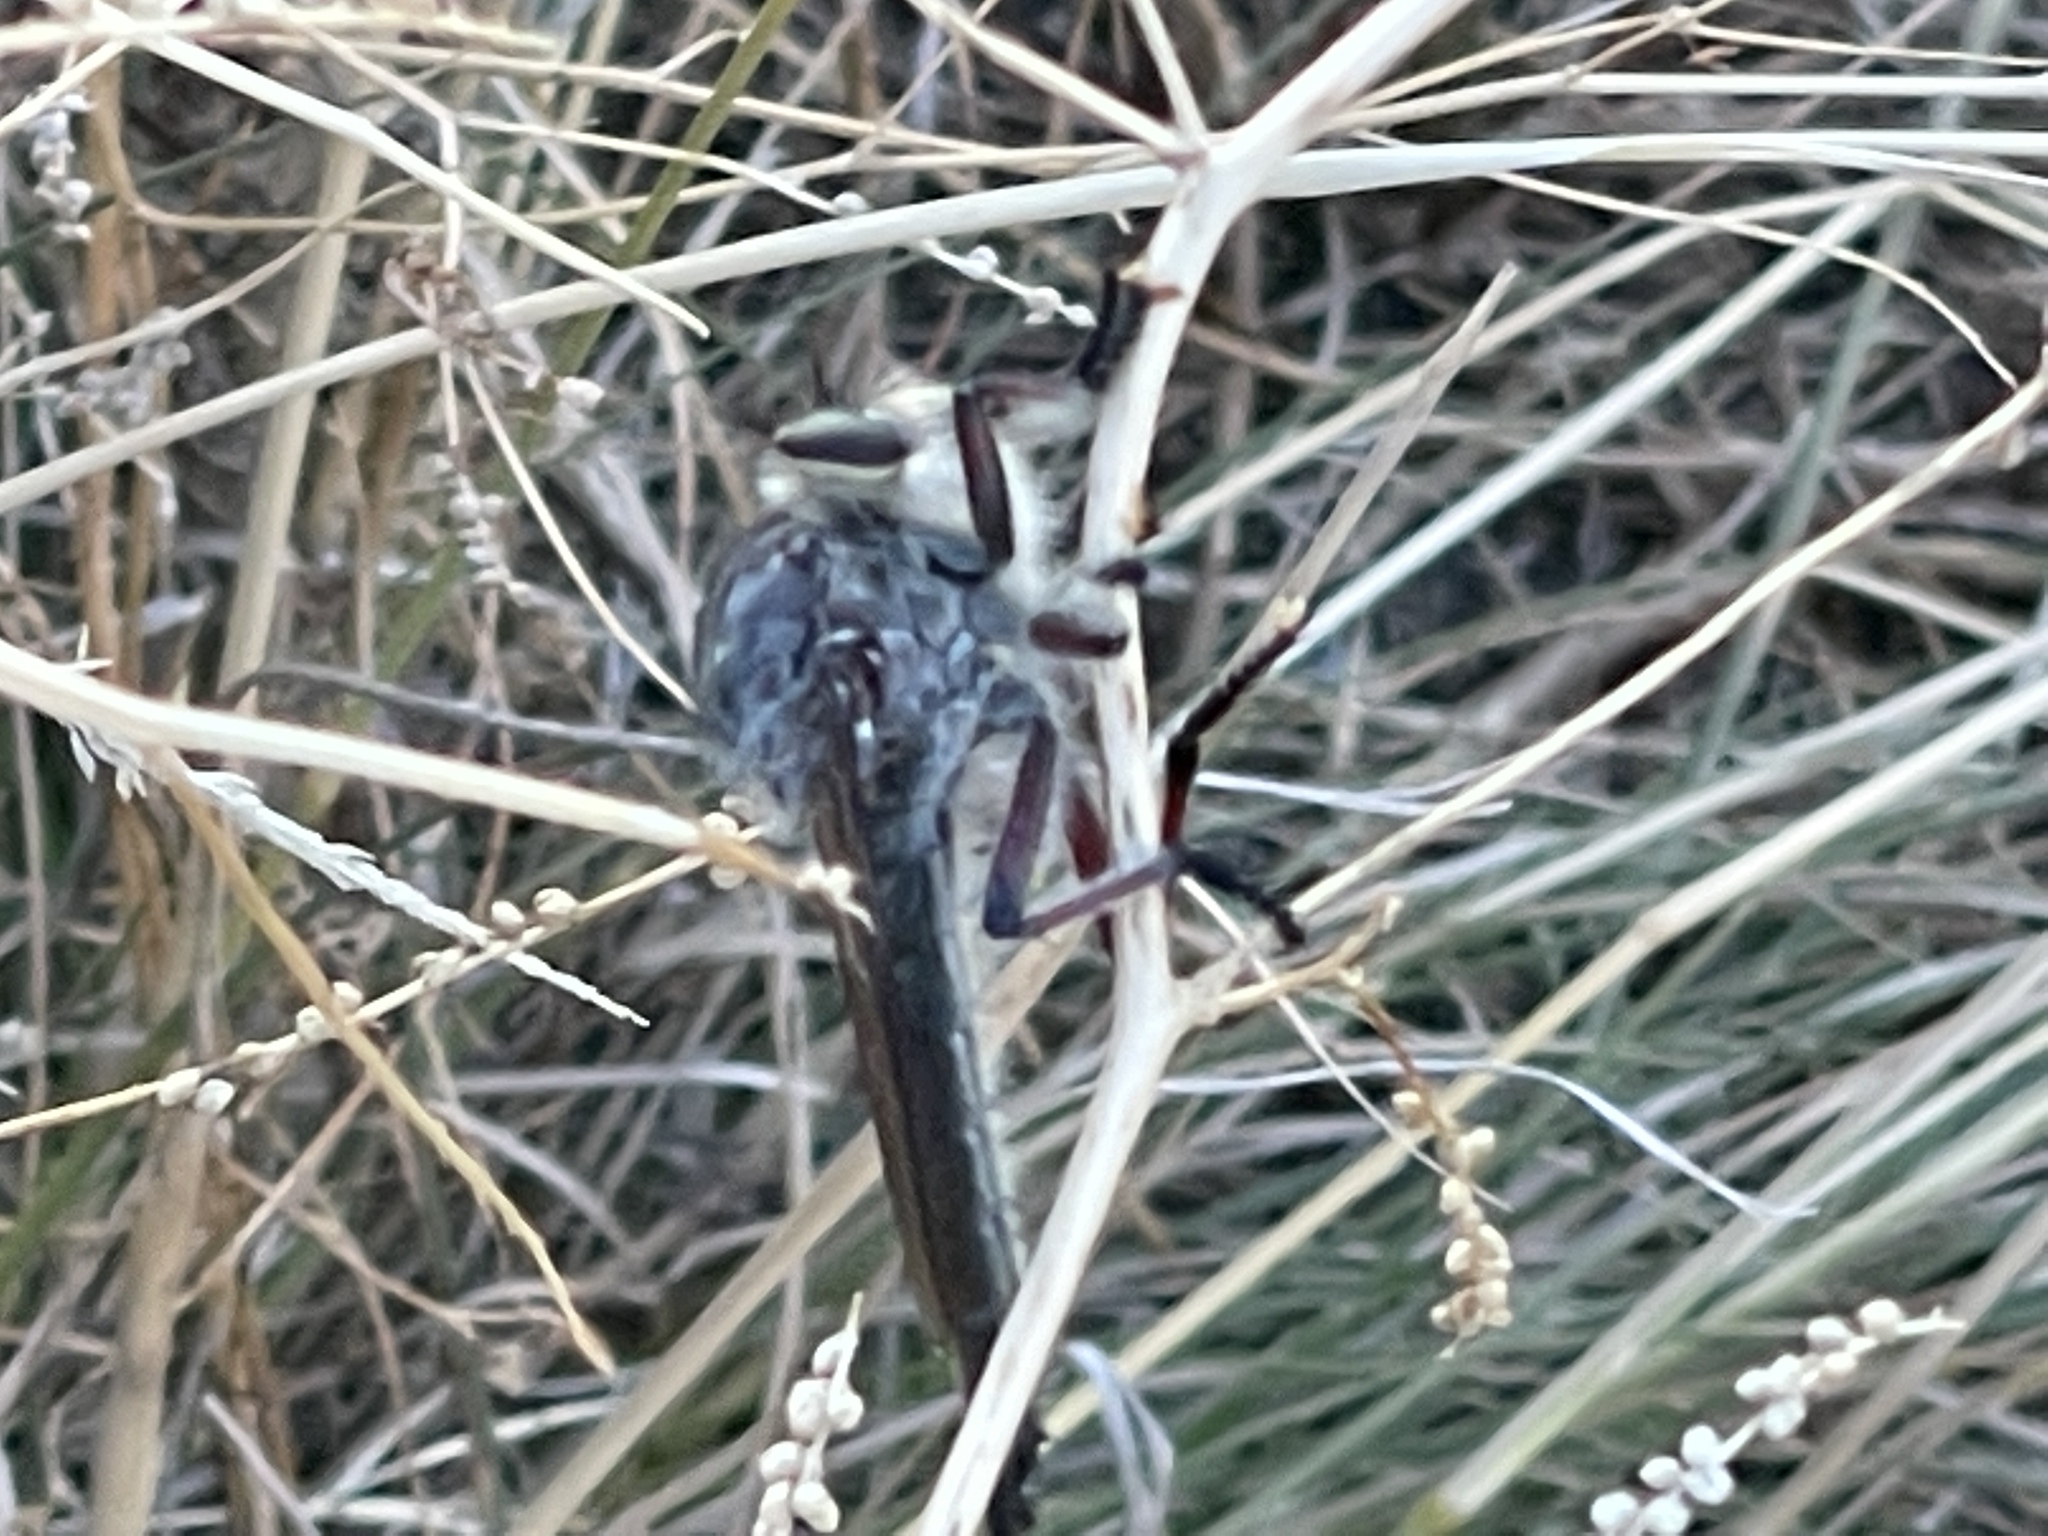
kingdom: Animalia
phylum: Arthropoda
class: Insecta
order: Diptera
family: Asilidae
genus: Neoaratus
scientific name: Neoaratus hercules
